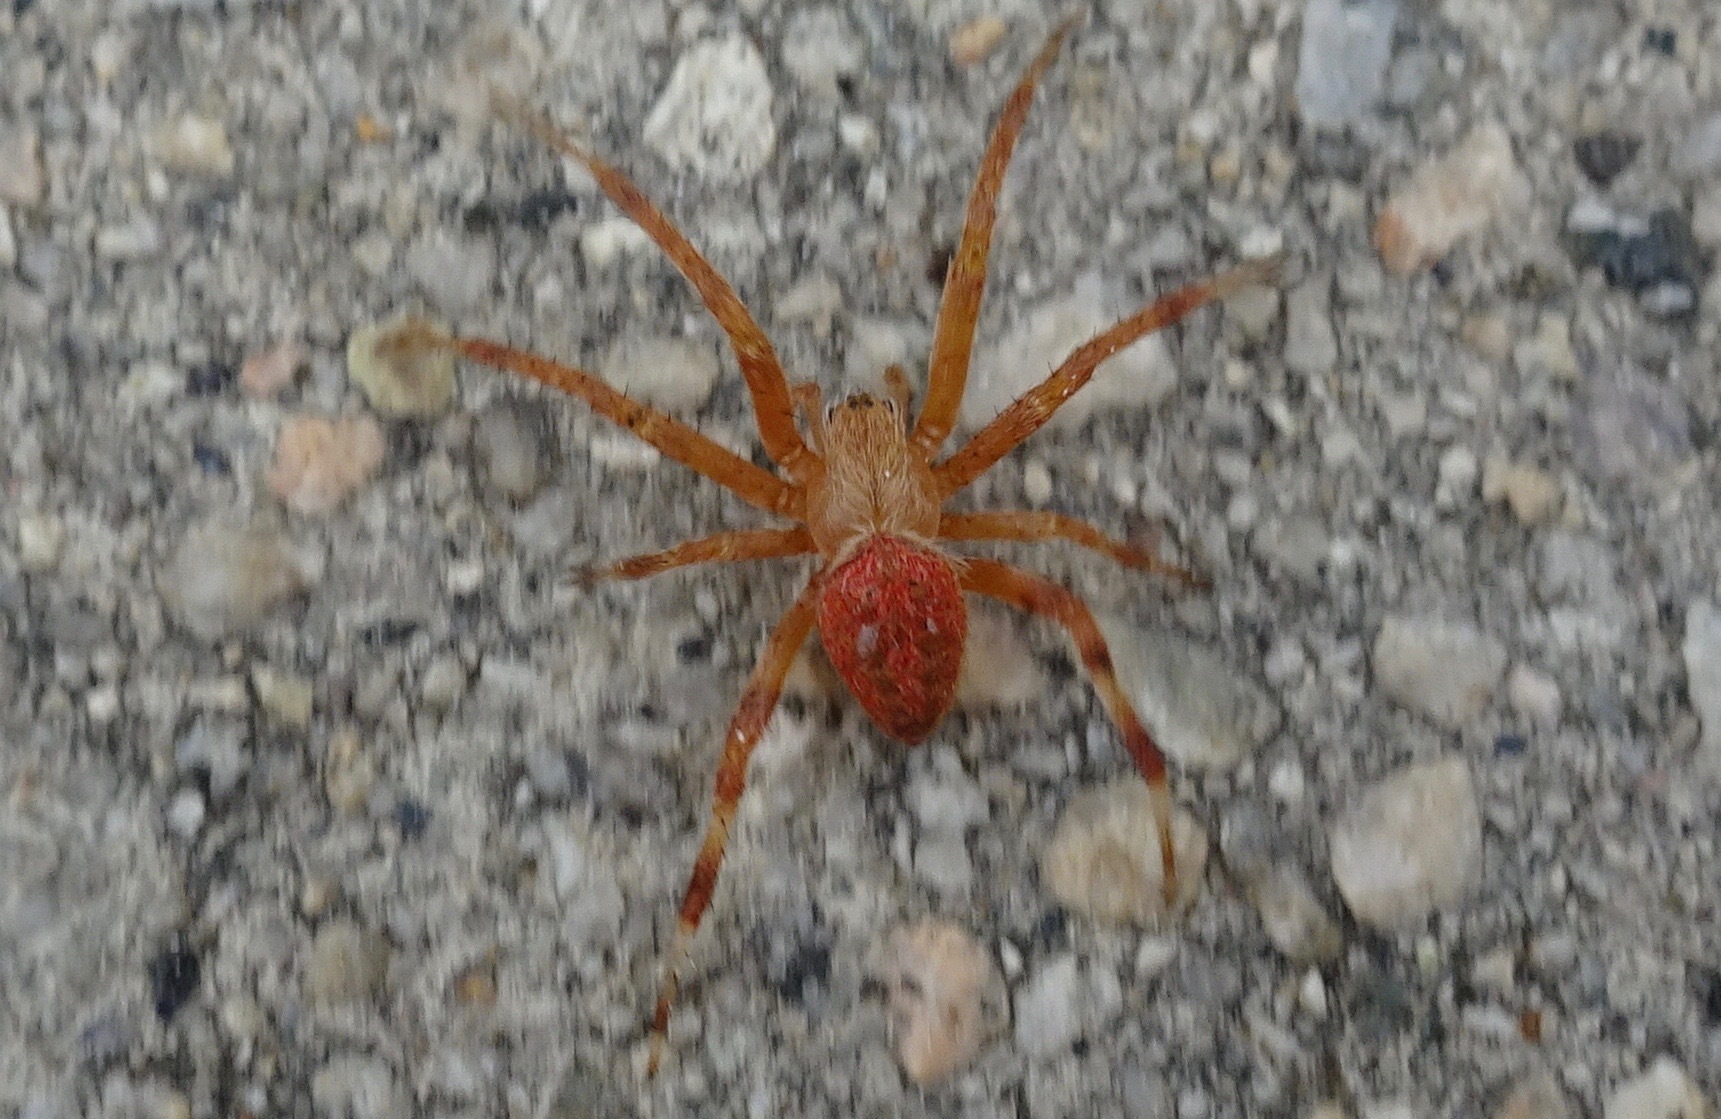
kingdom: Animalia
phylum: Arthropoda
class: Arachnida
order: Araneae
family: Araneidae
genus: Neoscona
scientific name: Neoscona crucifera
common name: Spotted orbweaver
